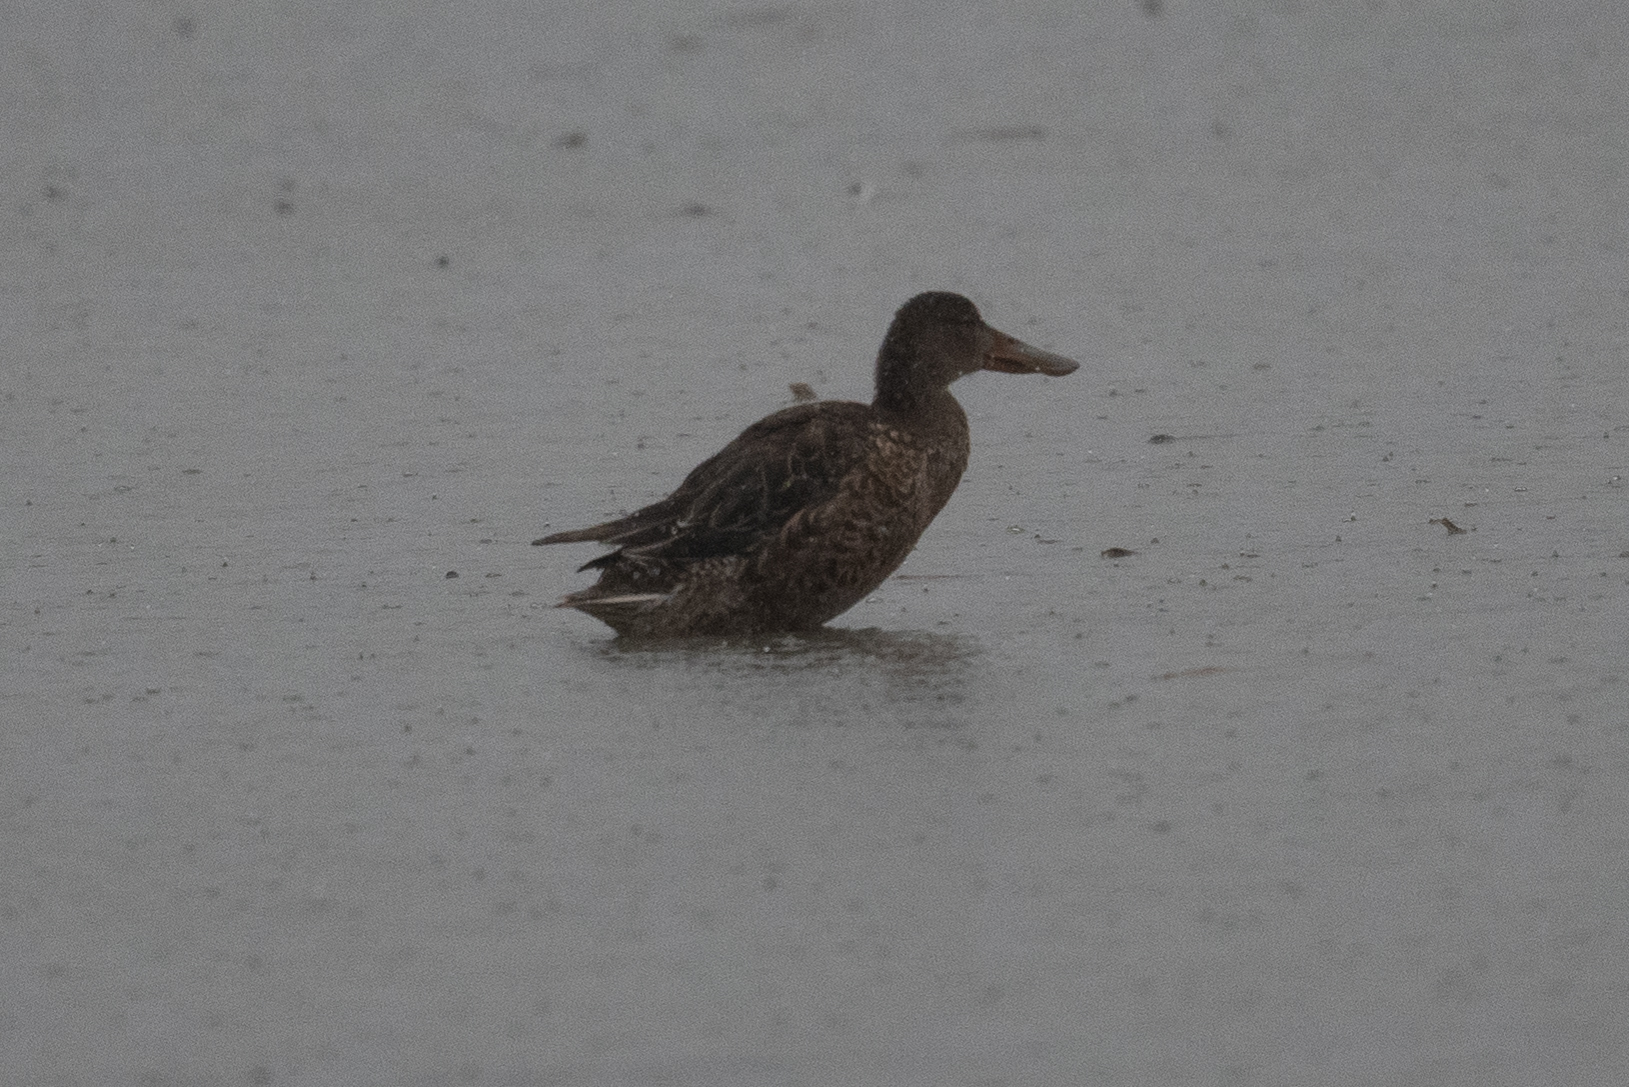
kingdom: Animalia
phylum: Chordata
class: Aves
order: Anseriformes
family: Anatidae
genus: Spatula
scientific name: Spatula clypeata
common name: Northern shoveler
